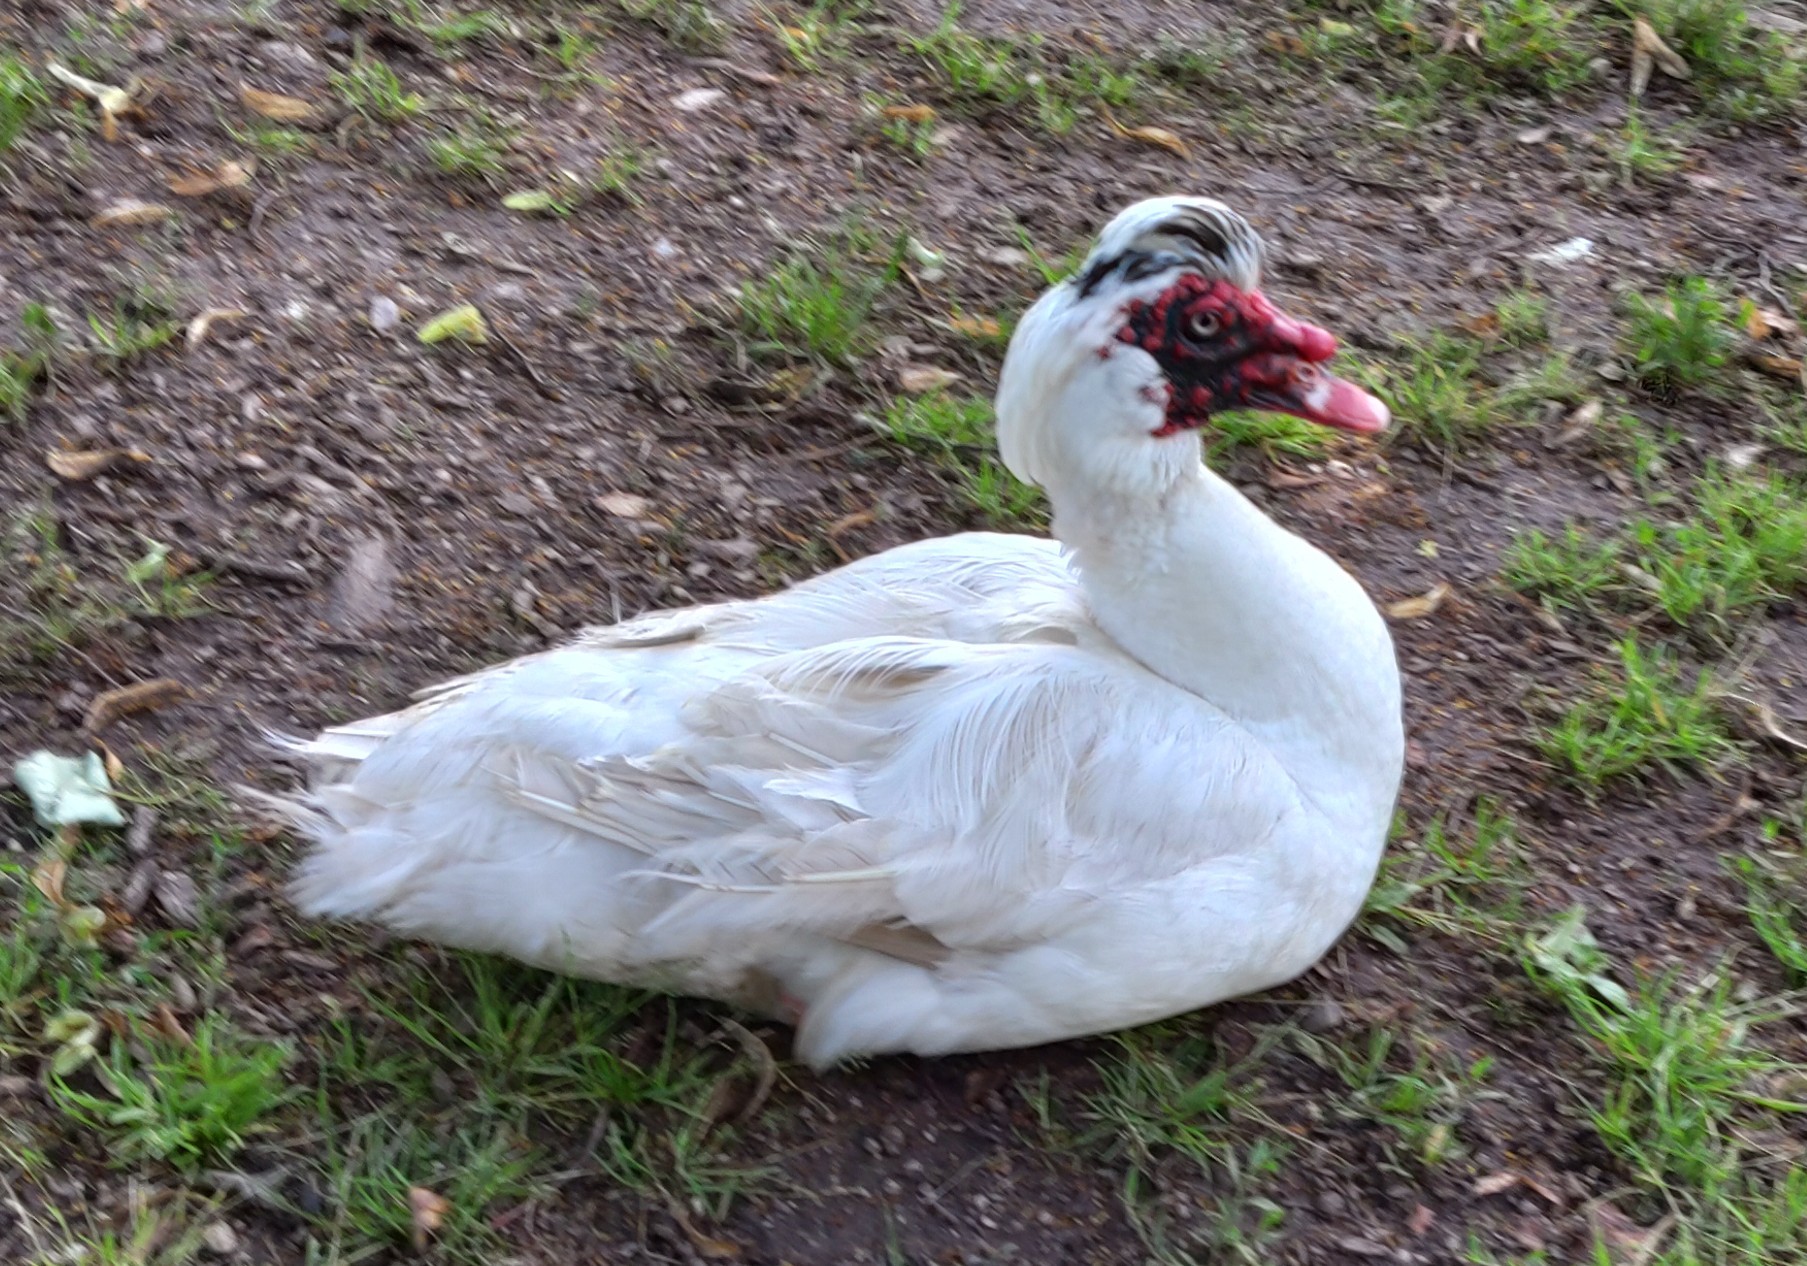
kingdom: Animalia
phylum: Chordata
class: Aves
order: Anseriformes
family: Anatidae
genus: Cairina
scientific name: Cairina moschata
